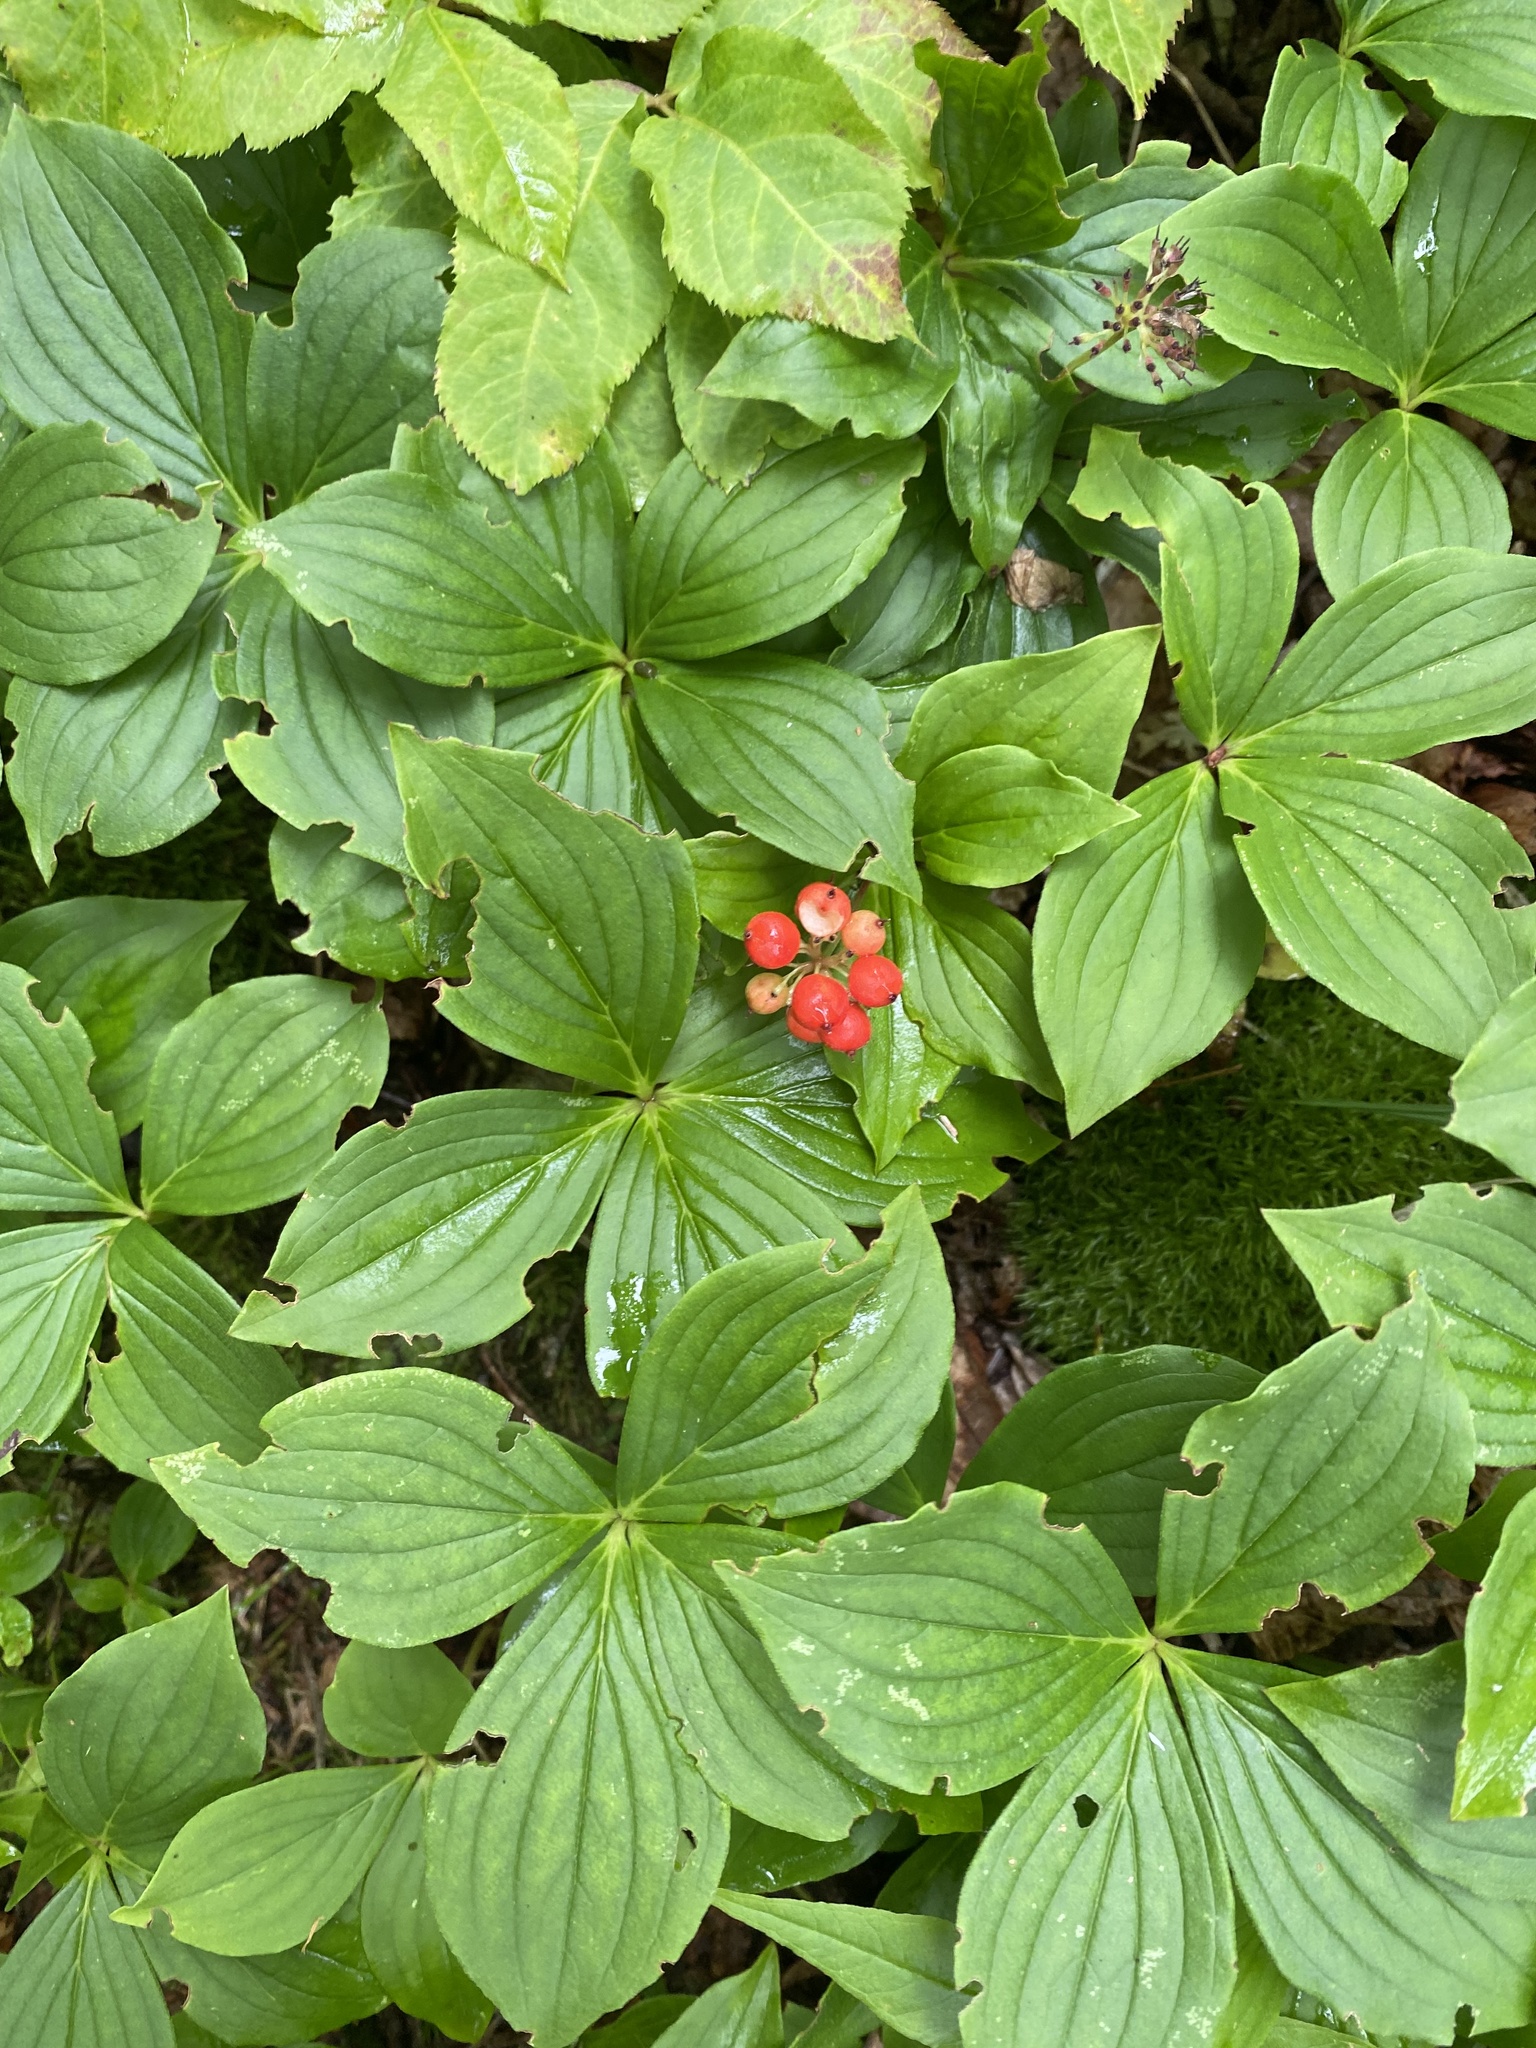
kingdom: Plantae
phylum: Tracheophyta
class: Magnoliopsida
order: Cornales
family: Cornaceae
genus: Cornus
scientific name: Cornus canadensis
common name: Creeping dogwood
